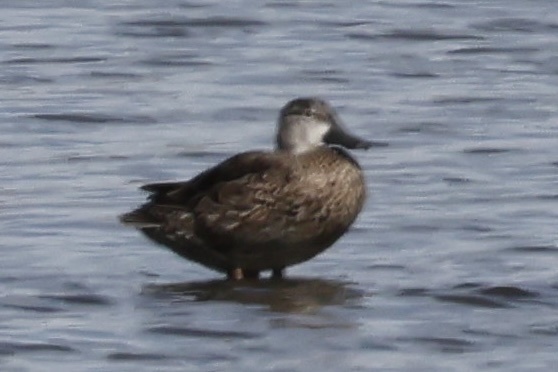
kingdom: Animalia
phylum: Chordata
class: Aves
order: Anseriformes
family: Anatidae
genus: Spatula
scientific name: Spatula discors
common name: Blue-winged teal
